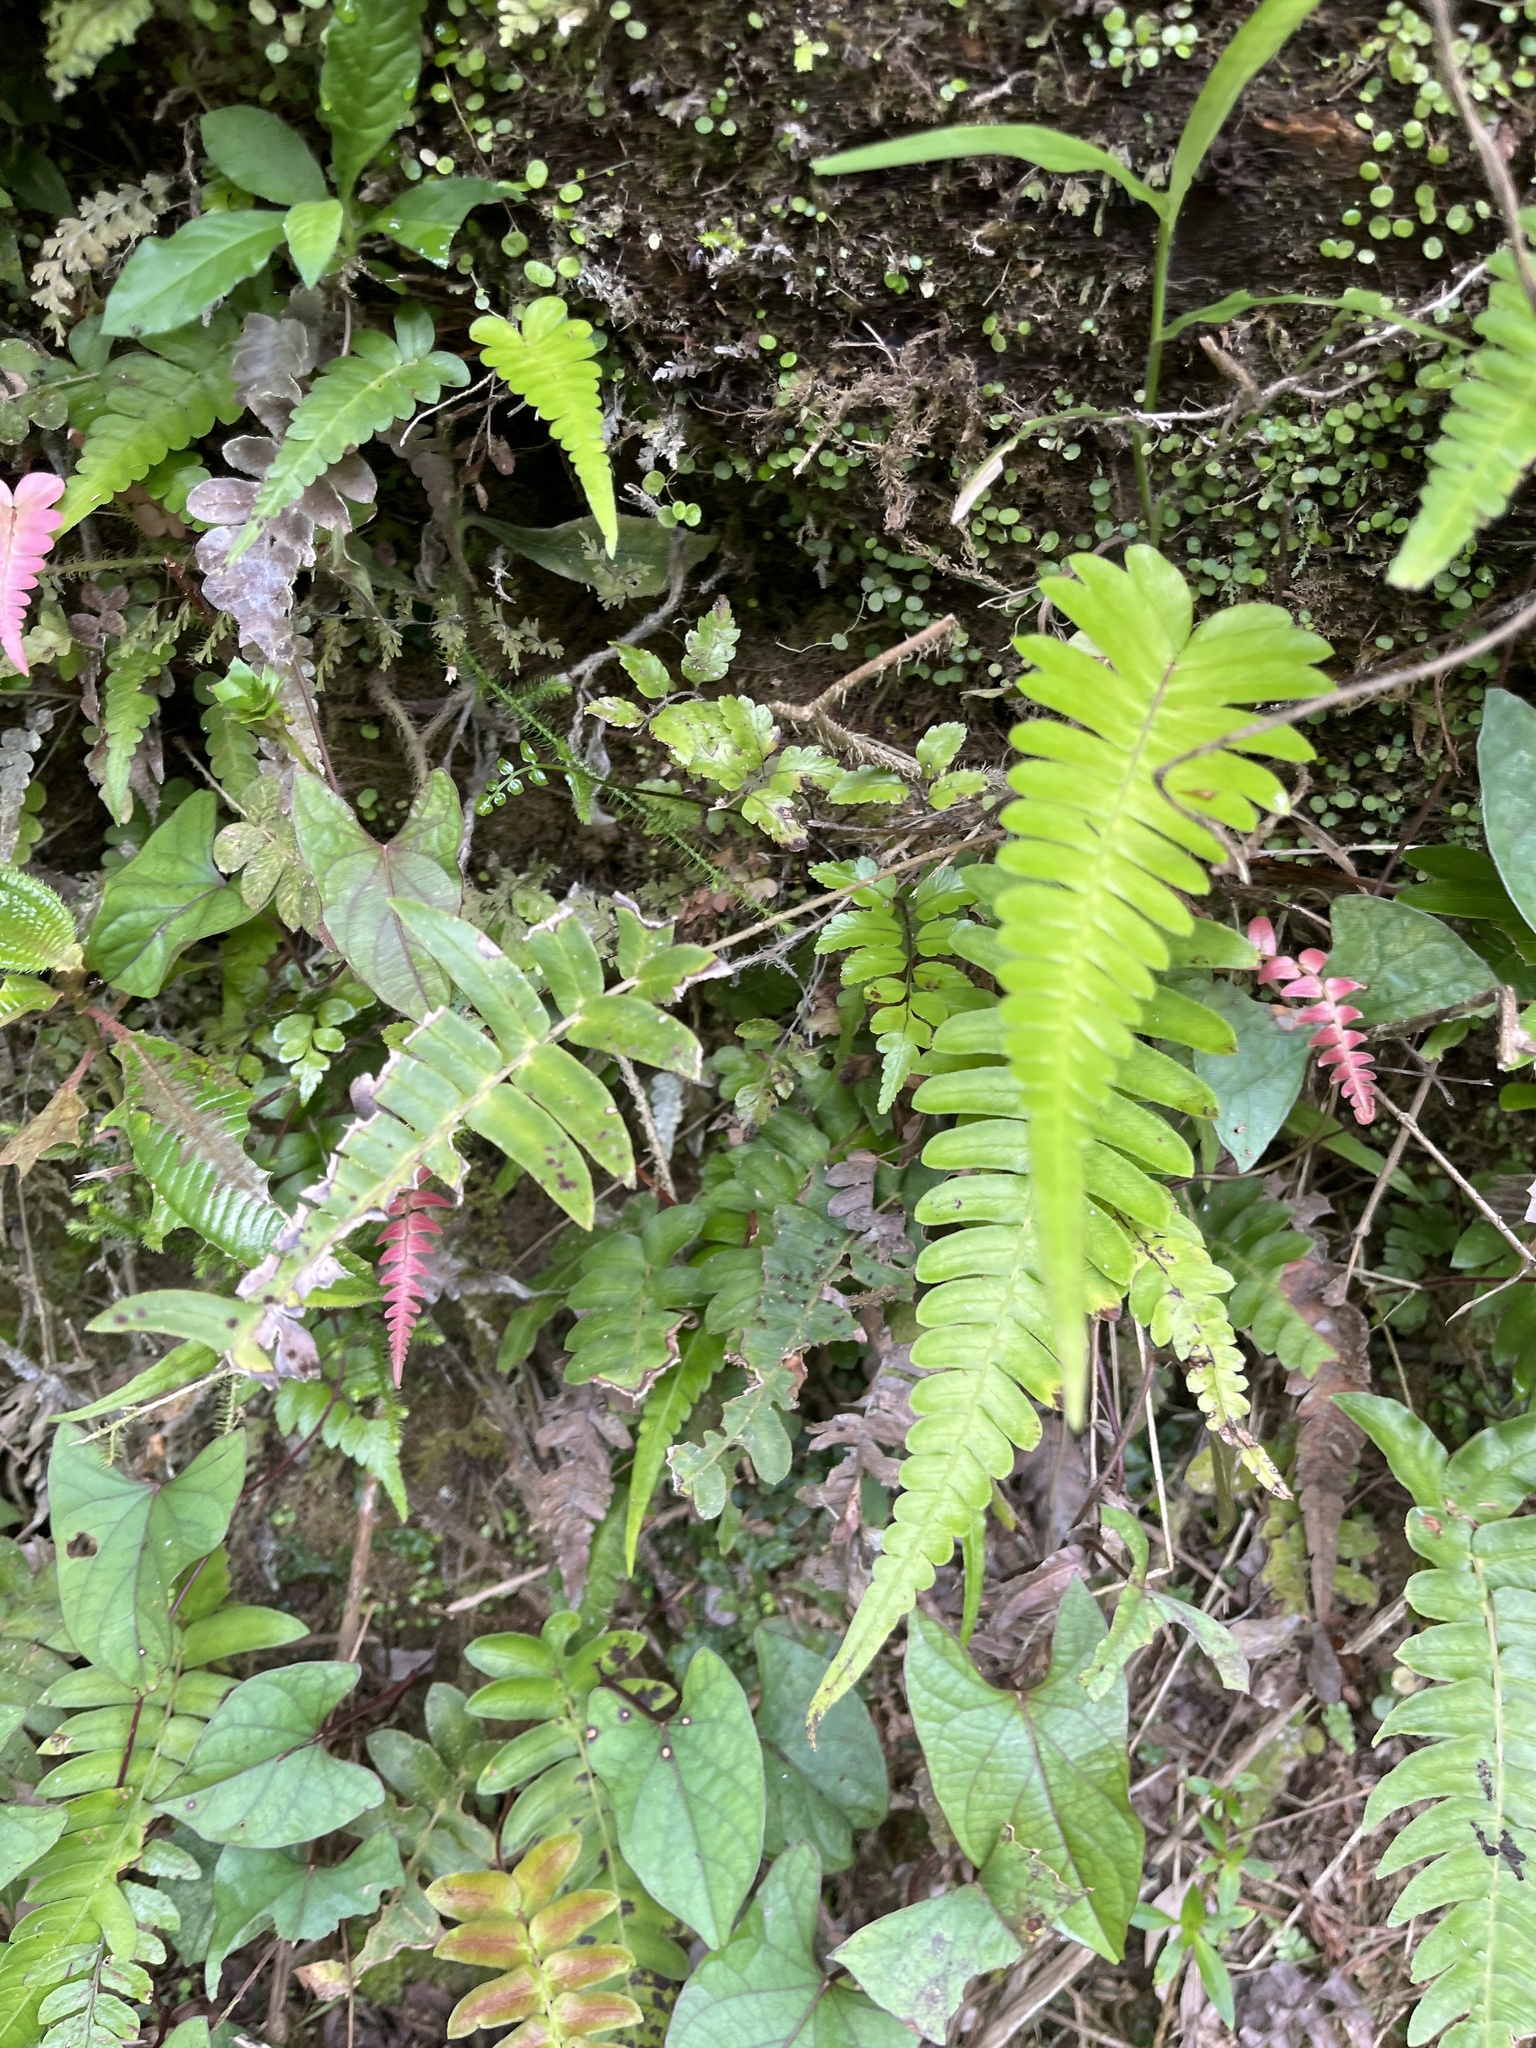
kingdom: Plantae
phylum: Tracheophyta
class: Polypodiopsida
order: Polypodiales
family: Blechnaceae
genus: Blechnum
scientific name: Blechnum occidentale
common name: Hammock fern
